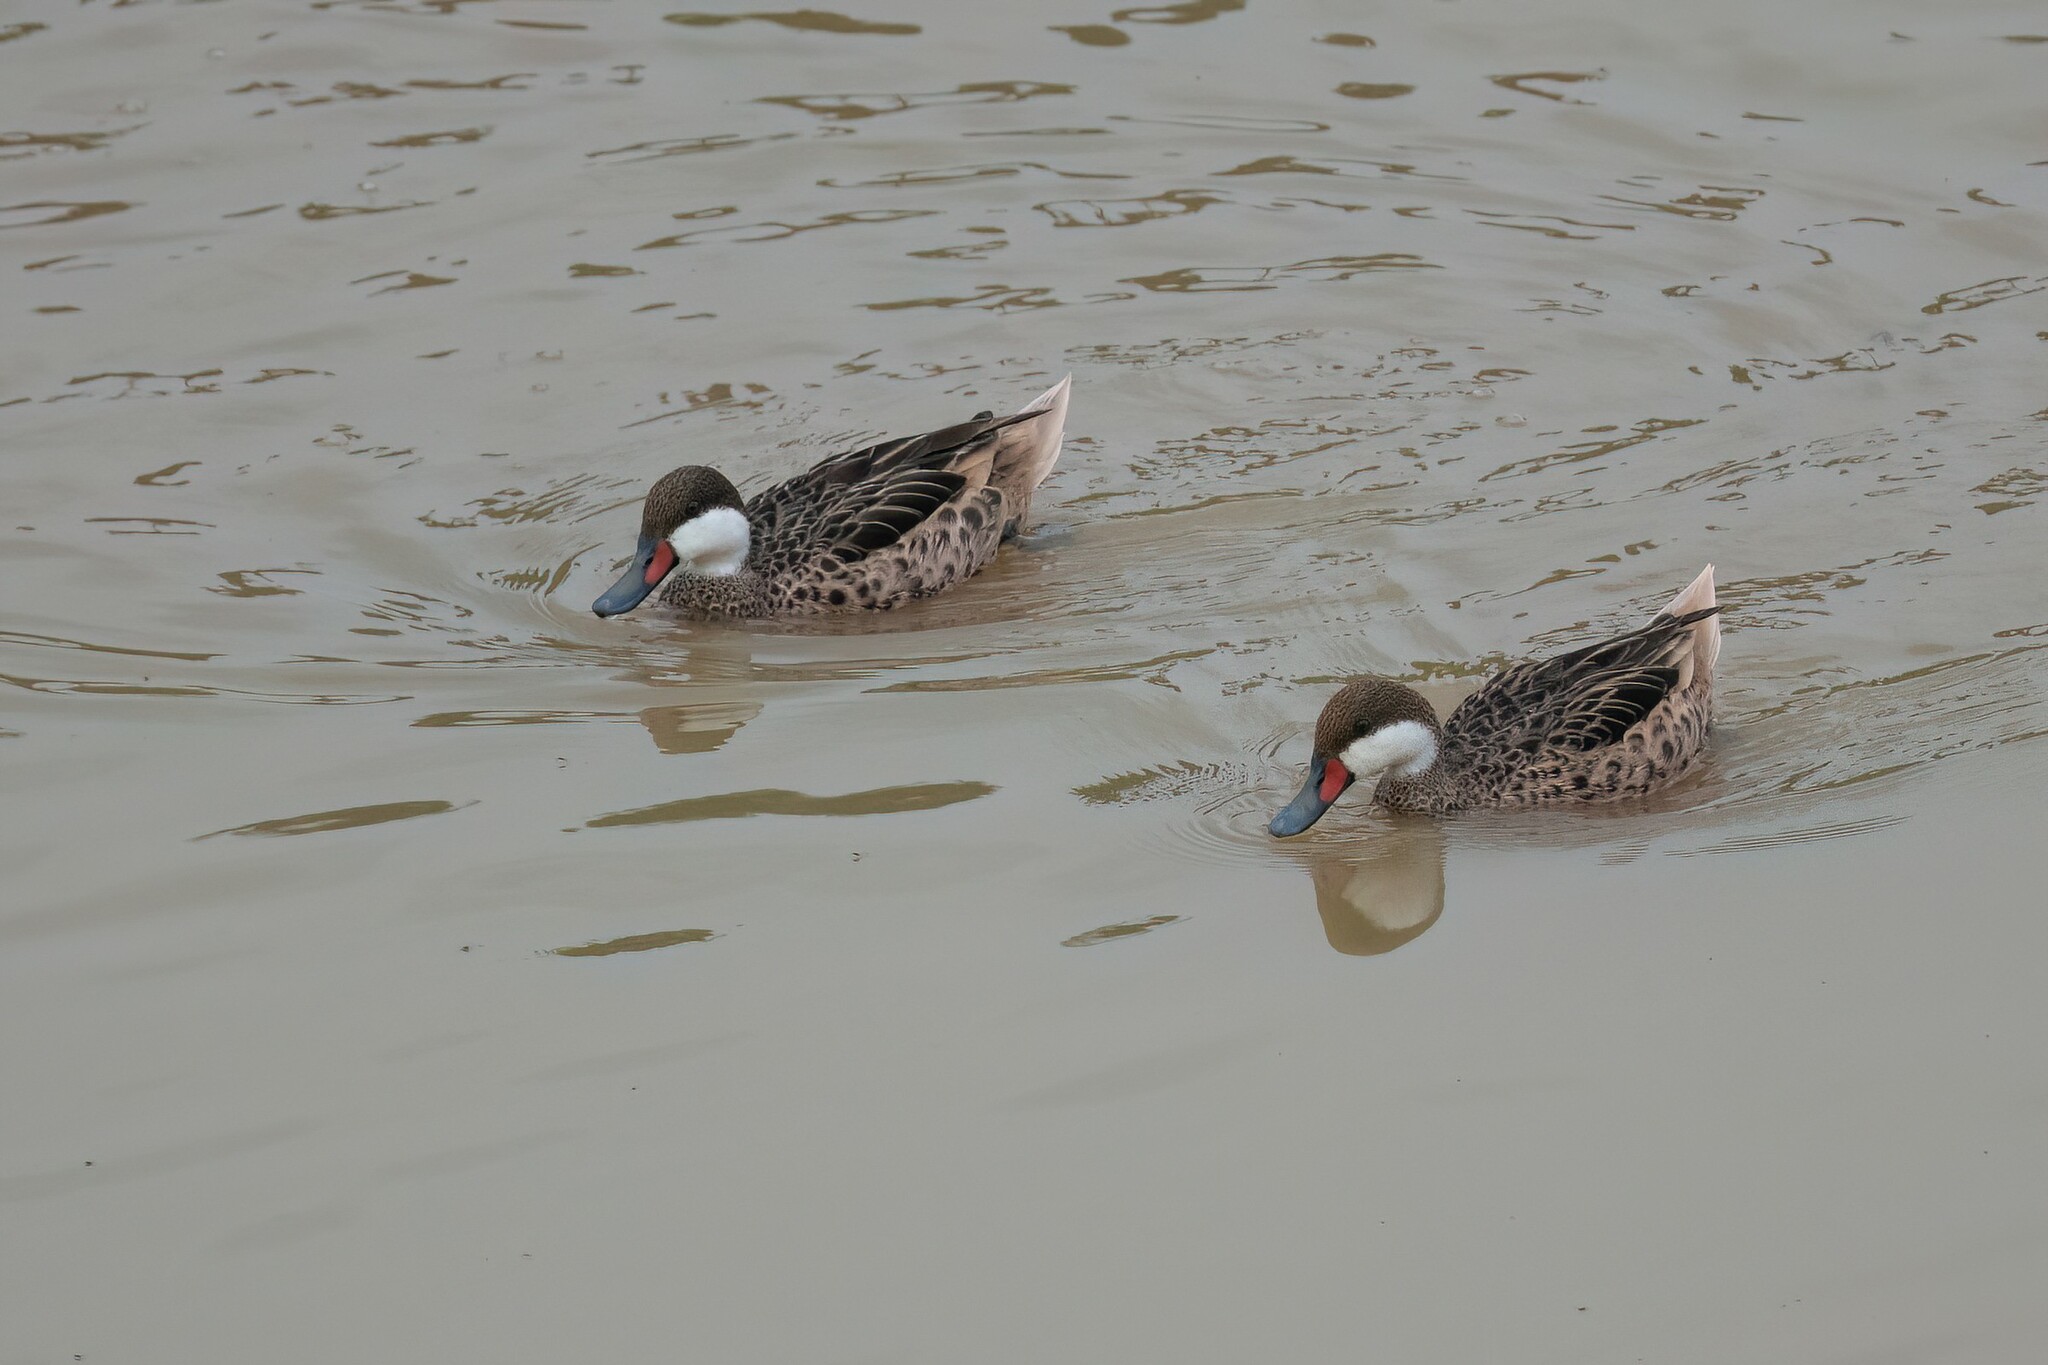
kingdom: Animalia
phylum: Chordata
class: Aves
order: Anseriformes
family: Anatidae
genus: Anas
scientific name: Anas bahamensis
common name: White-cheeked pintail
